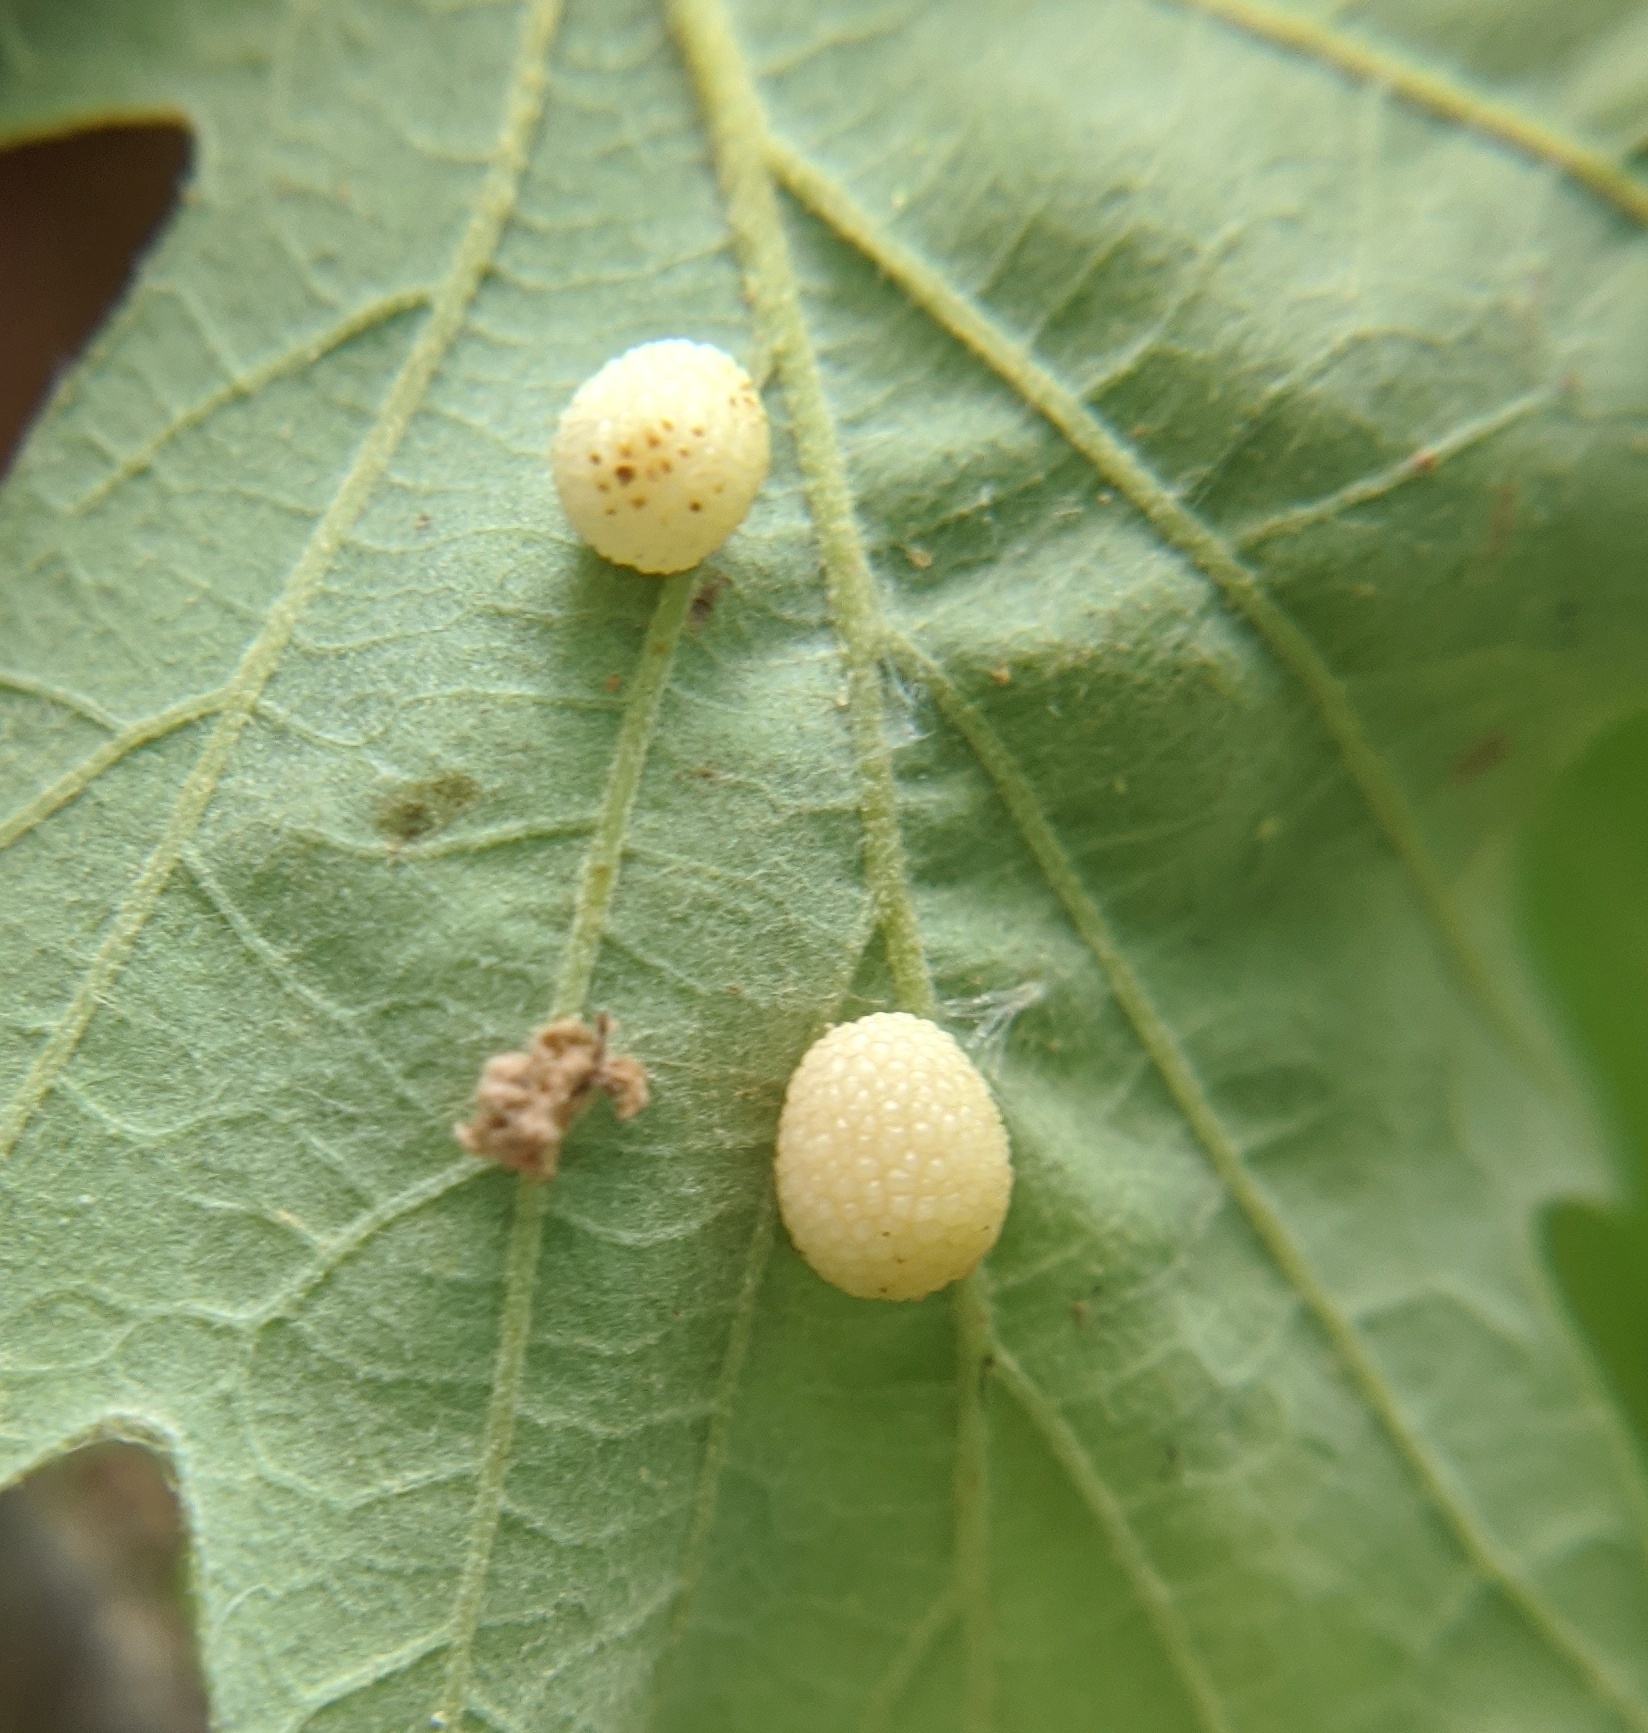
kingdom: Animalia
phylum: Arthropoda
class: Insecta
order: Hymenoptera
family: Cynipidae
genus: Acraspis
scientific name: Acraspis quercushirta
